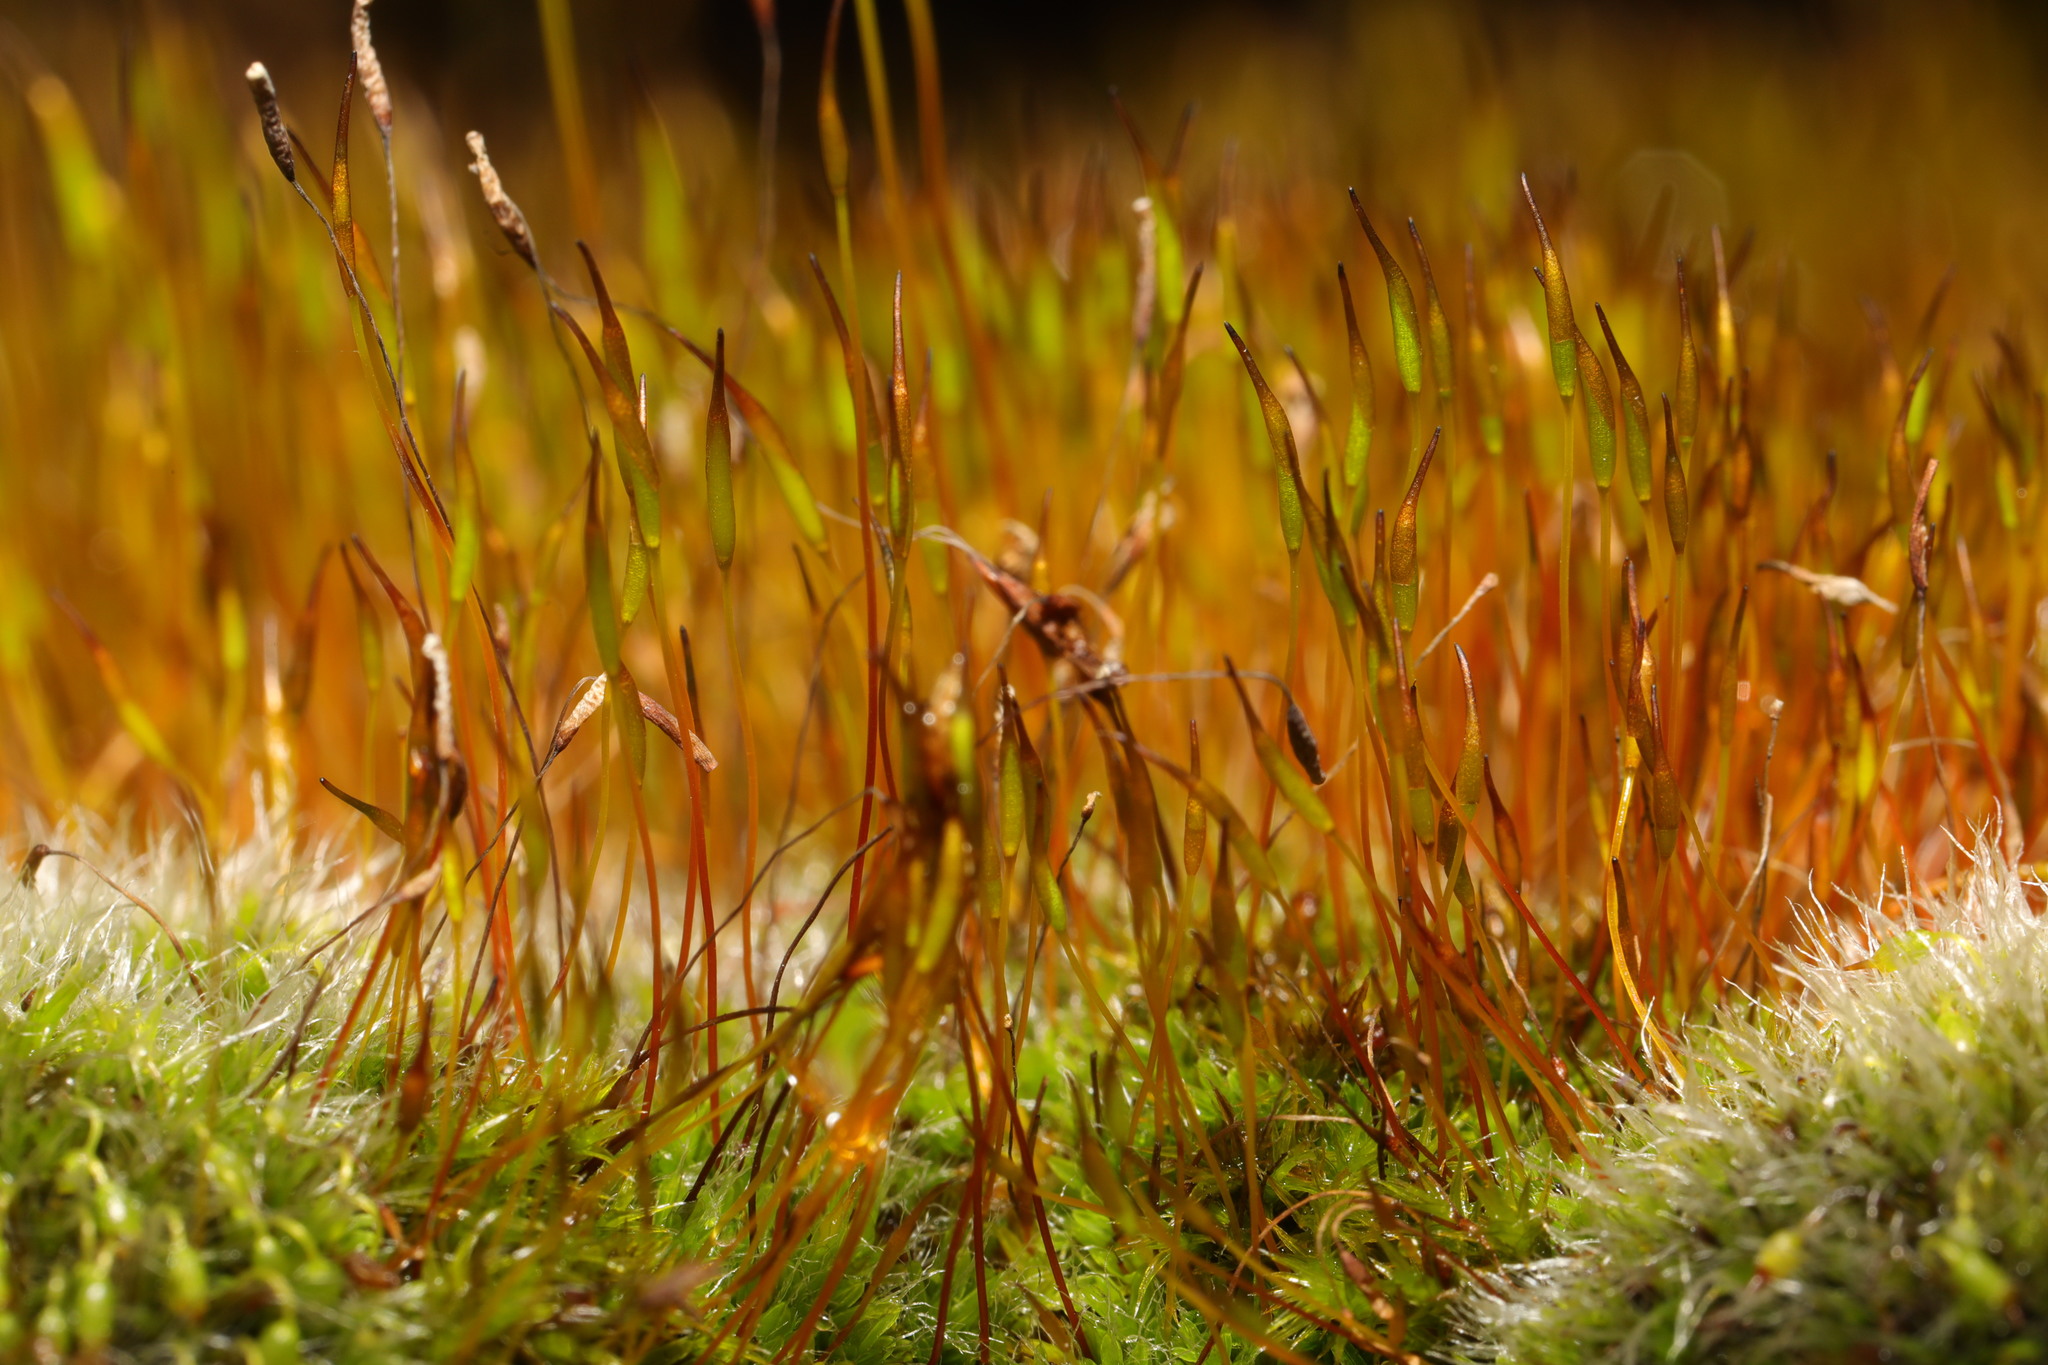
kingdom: Plantae
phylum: Bryophyta
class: Bryopsida
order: Pottiales
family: Pottiaceae
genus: Tortula
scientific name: Tortula muralis
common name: Wall screw-moss
